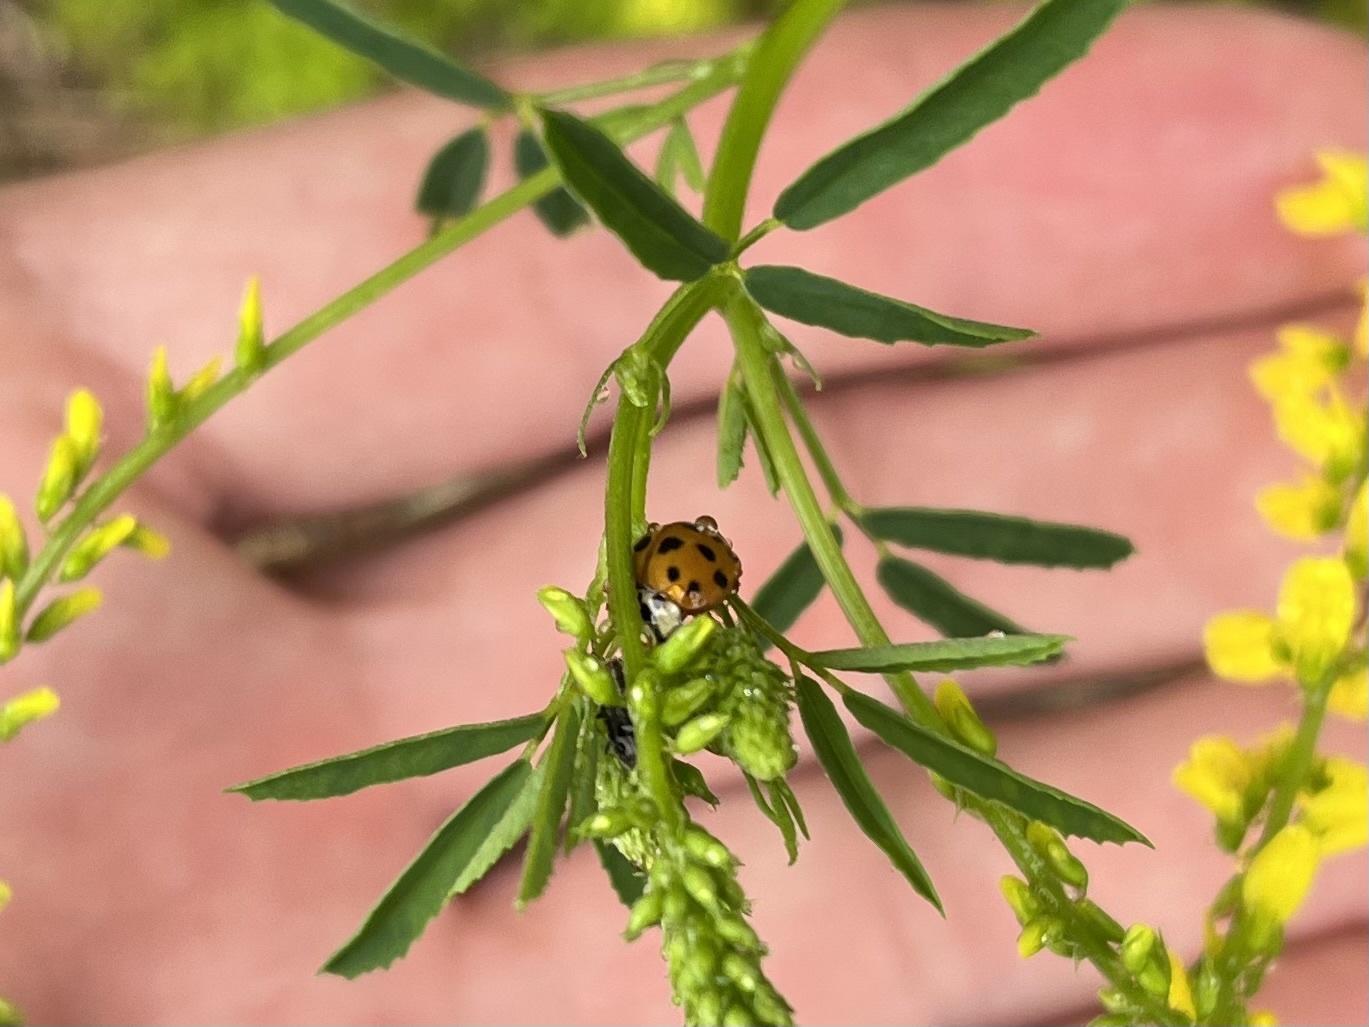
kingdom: Animalia
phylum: Arthropoda
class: Insecta
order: Coleoptera
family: Coccinellidae
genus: Harmonia
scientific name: Harmonia axyridis
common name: Harlequin ladybird
